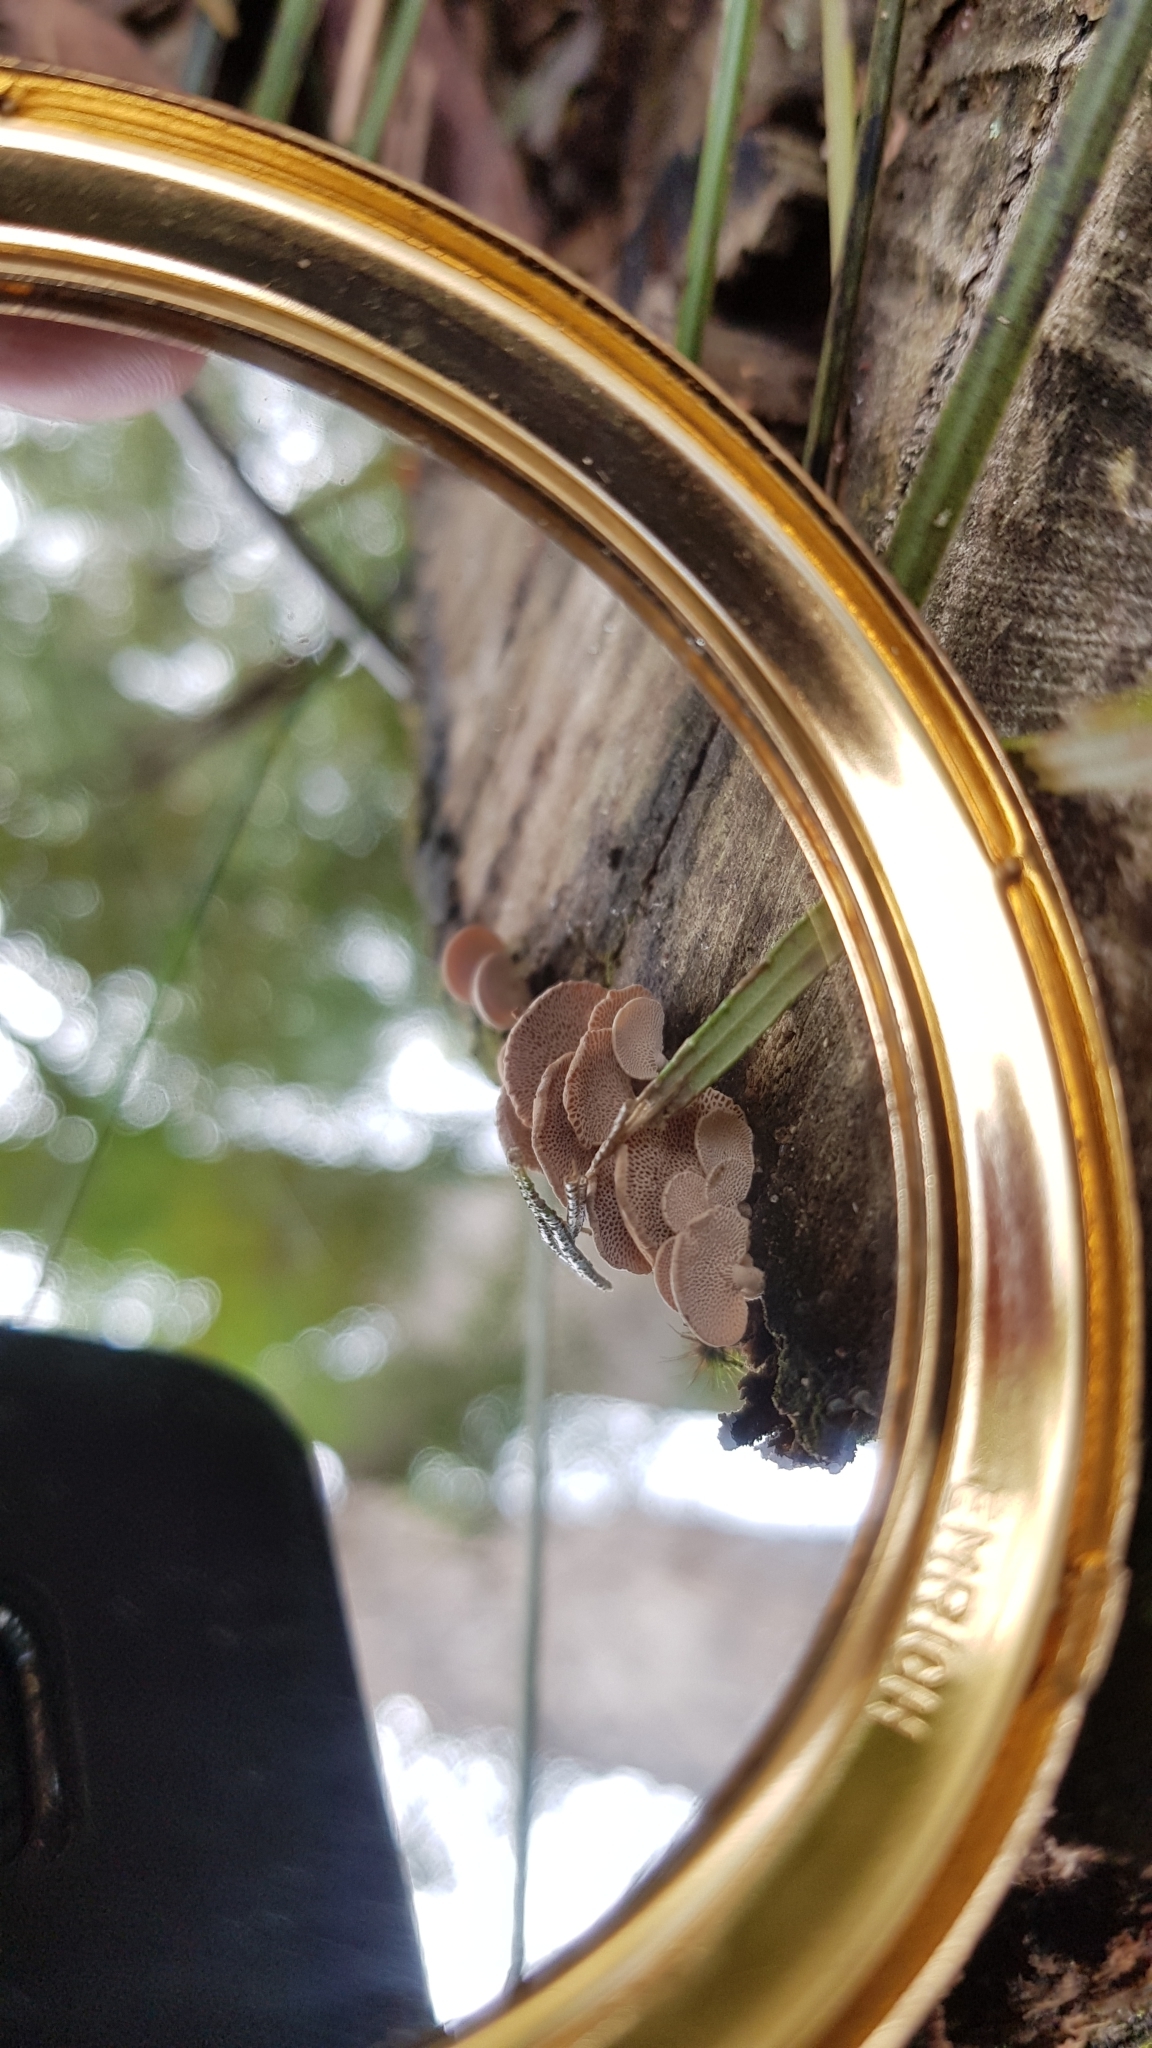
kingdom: Fungi
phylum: Basidiomycota
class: Agaricomycetes
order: Agaricales
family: Mycenaceae
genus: Panellus
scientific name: Panellus luxfilamentus
